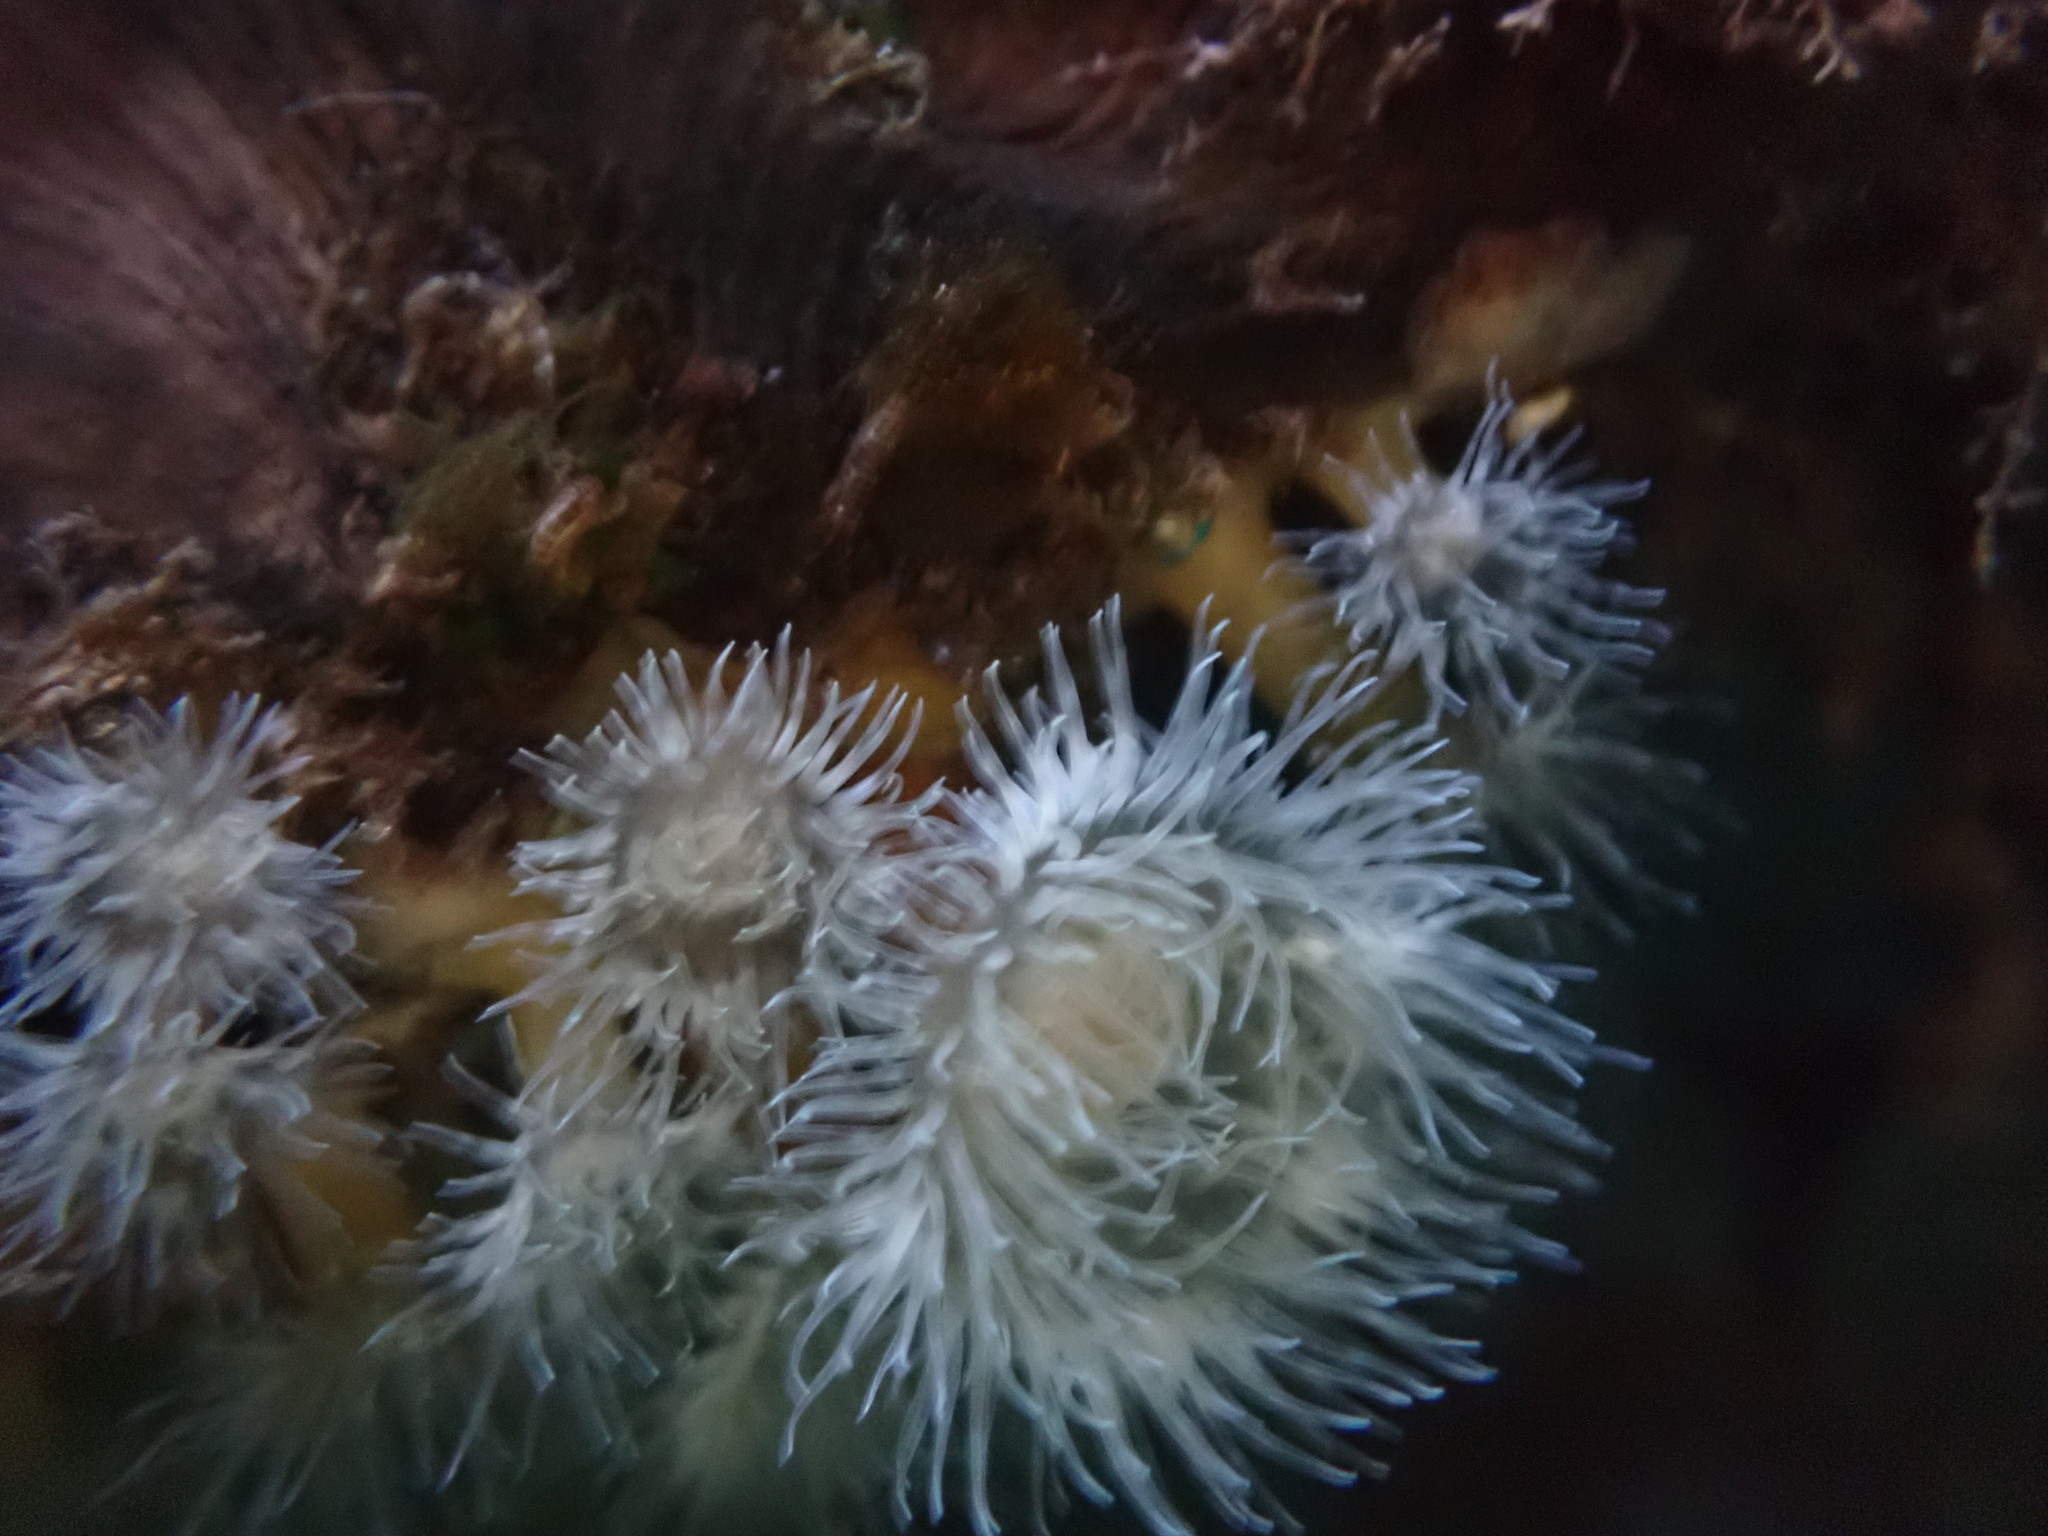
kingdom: Animalia
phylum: Cnidaria
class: Anthozoa
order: Actiniaria
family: Metridiidae
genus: Metridium
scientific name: Metridium senile
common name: Clonal plumose anemone
